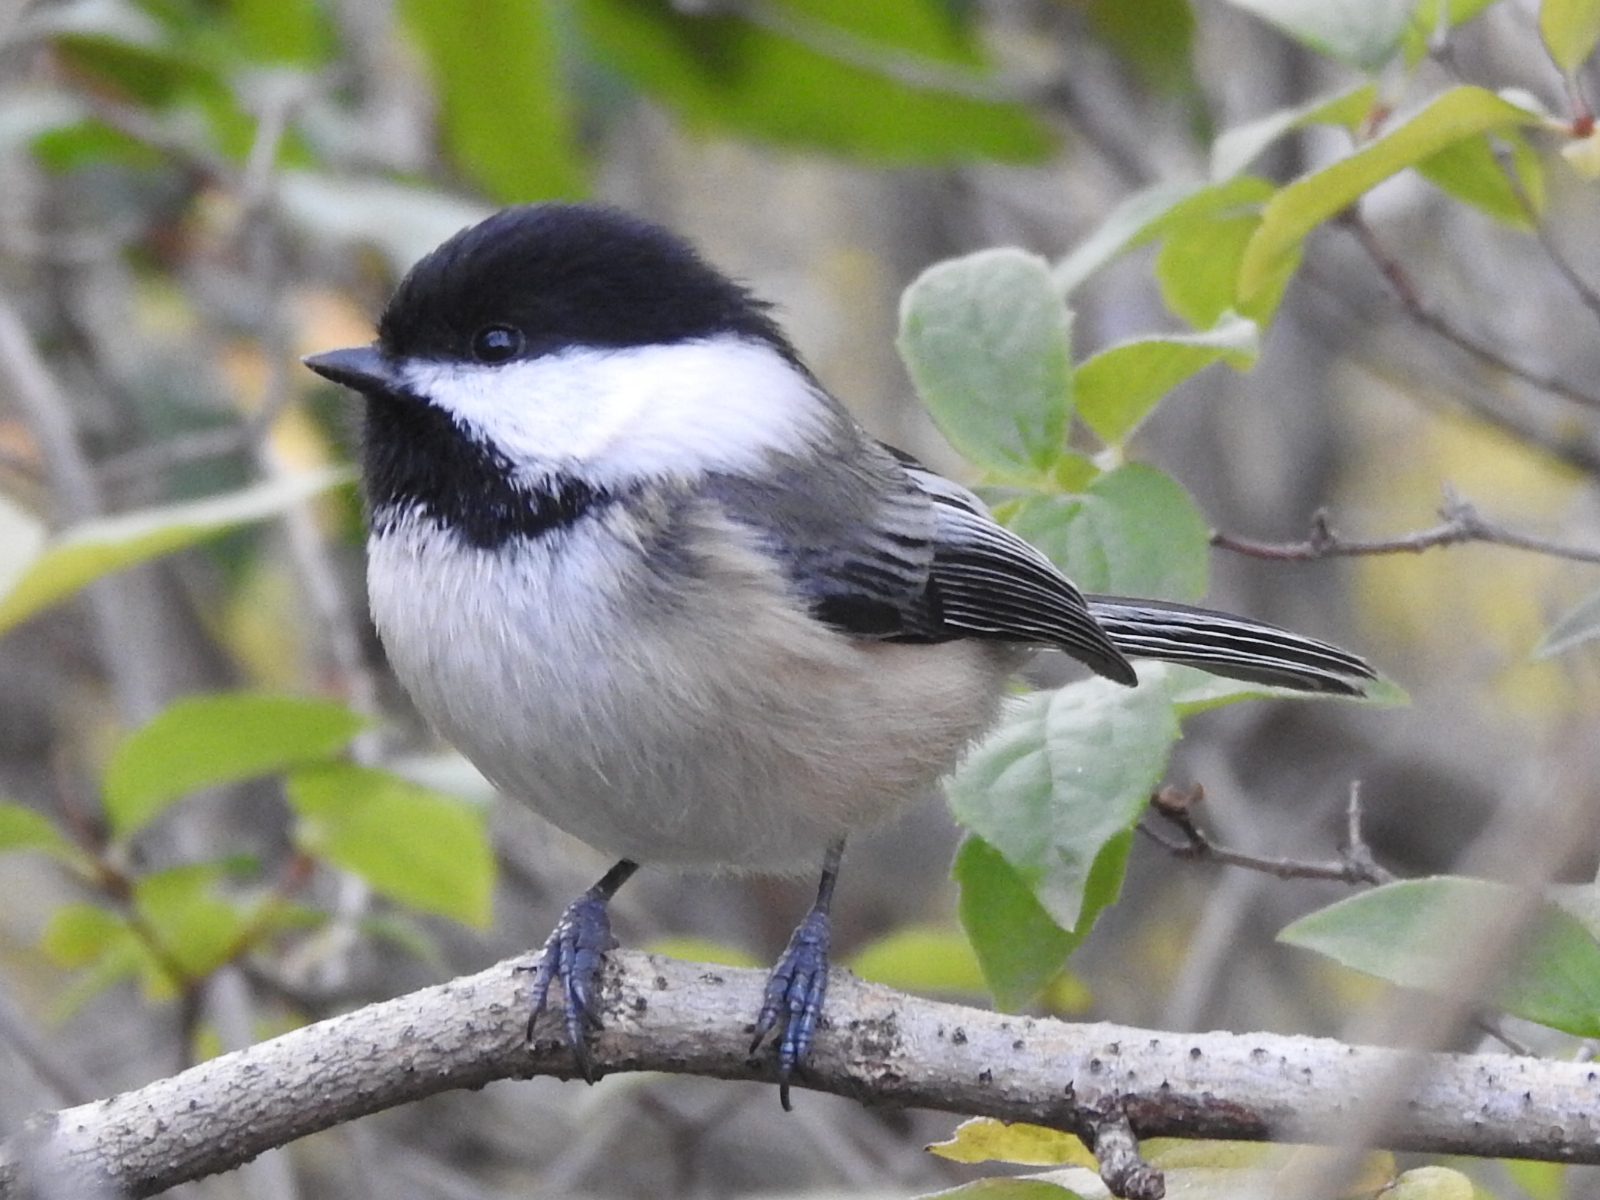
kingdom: Animalia
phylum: Chordata
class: Aves
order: Passeriformes
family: Paridae
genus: Poecile
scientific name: Poecile atricapillus
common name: Black-capped chickadee
